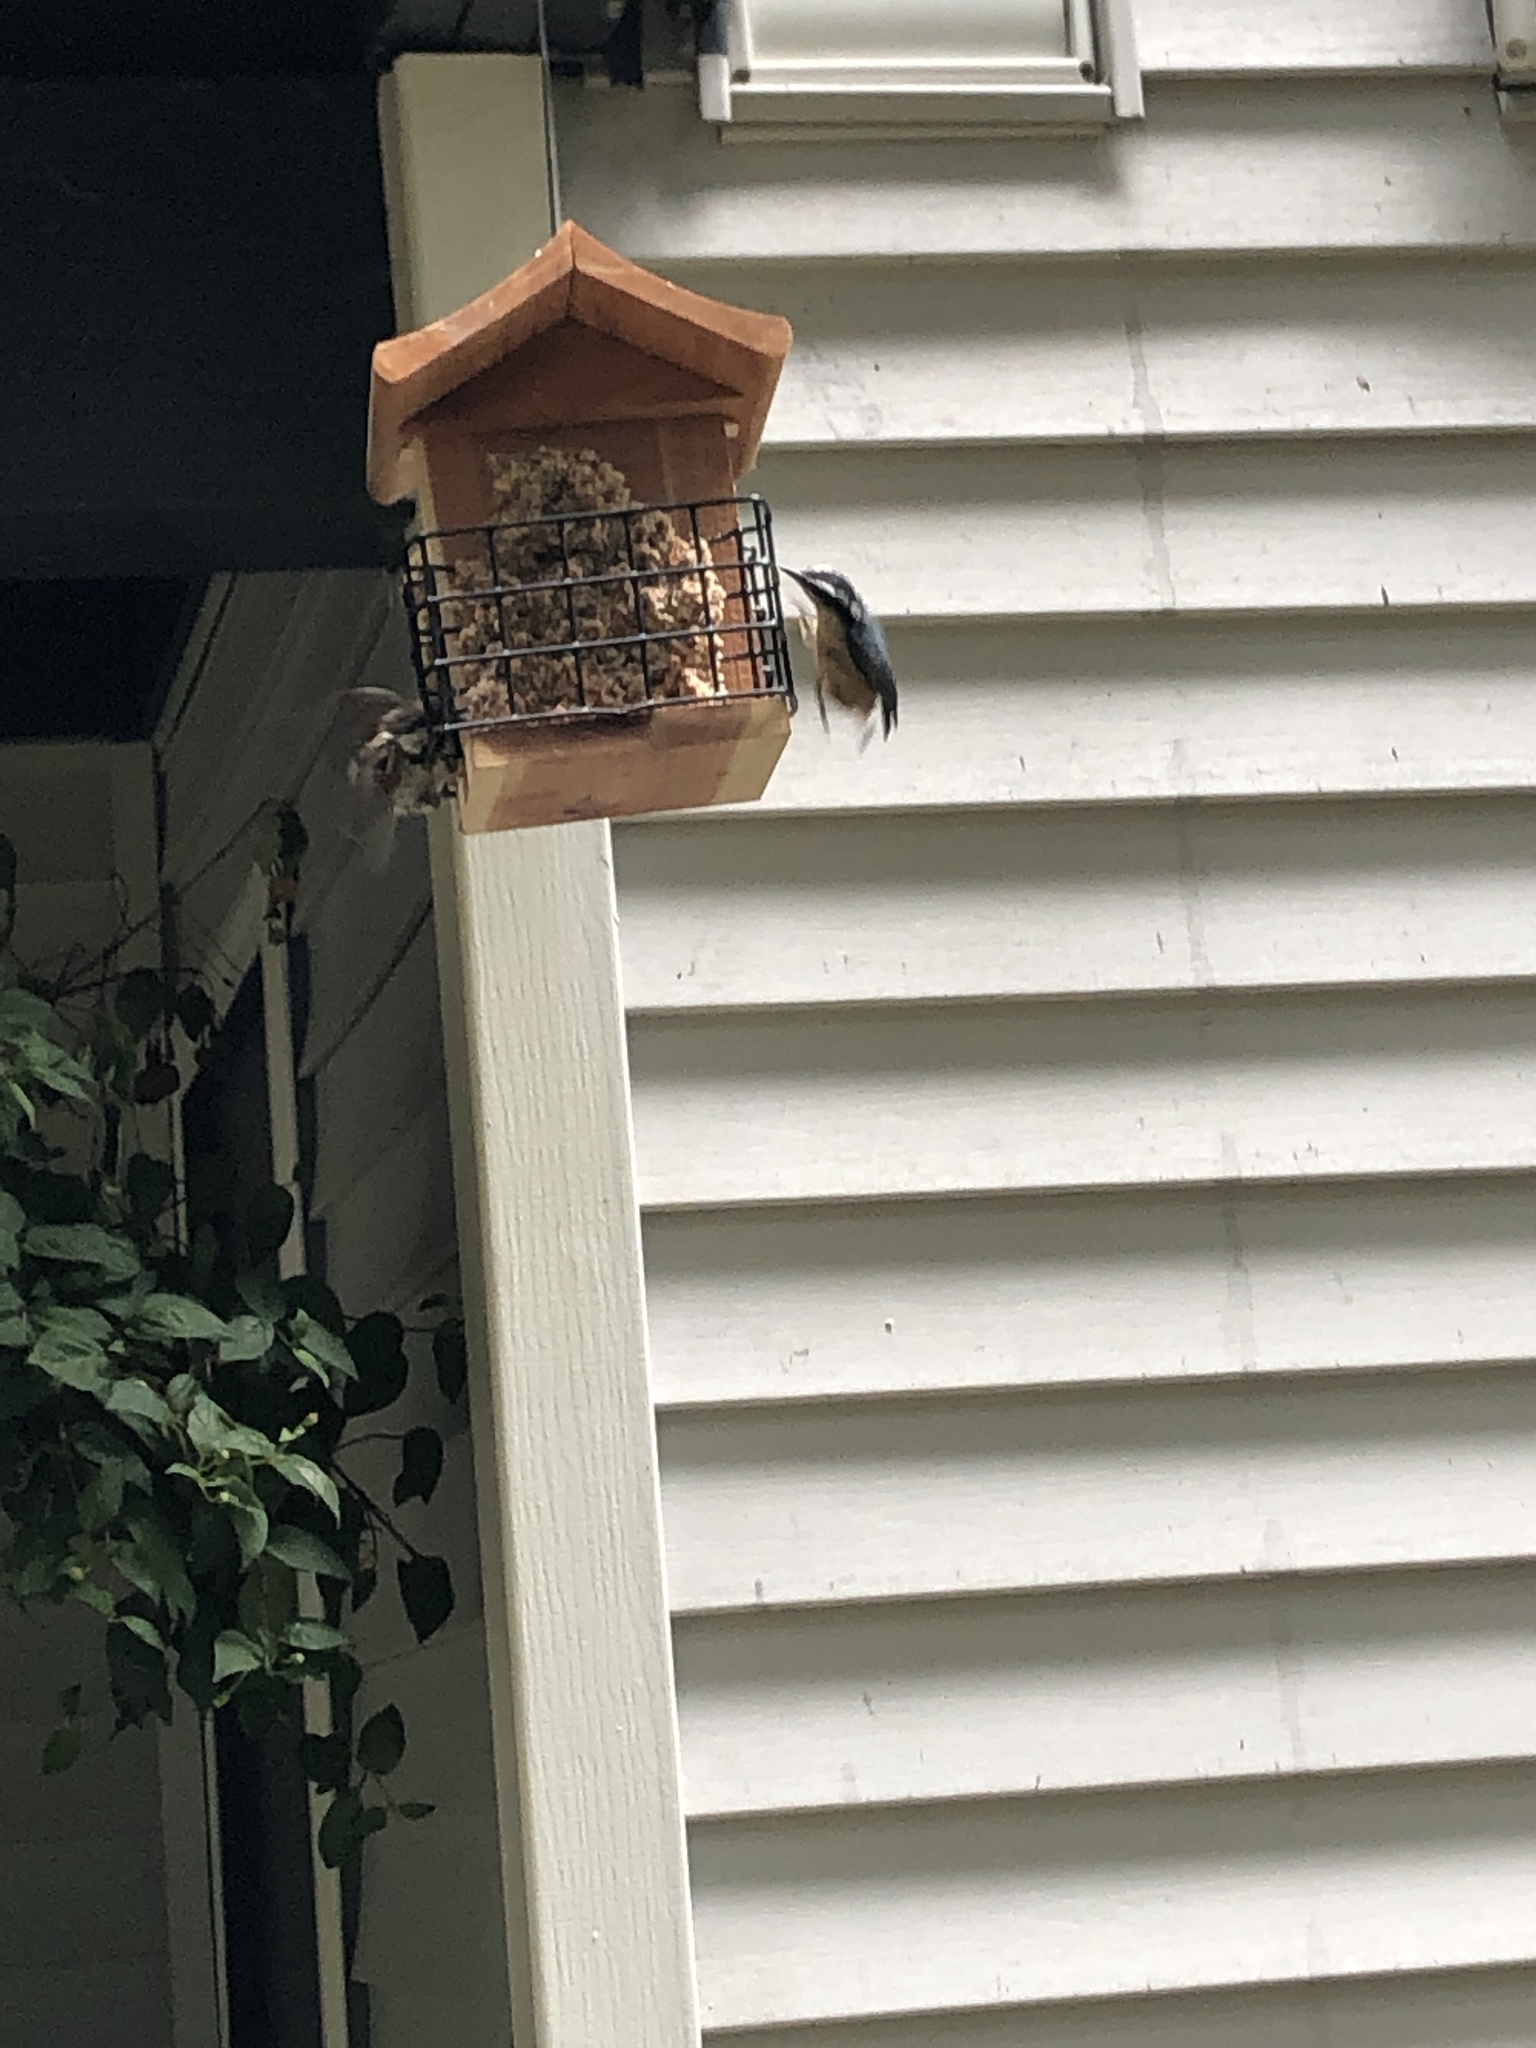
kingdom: Animalia
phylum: Chordata
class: Aves
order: Passeriformes
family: Sittidae
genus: Sitta
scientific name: Sitta canadensis
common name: Red-breasted nuthatch
